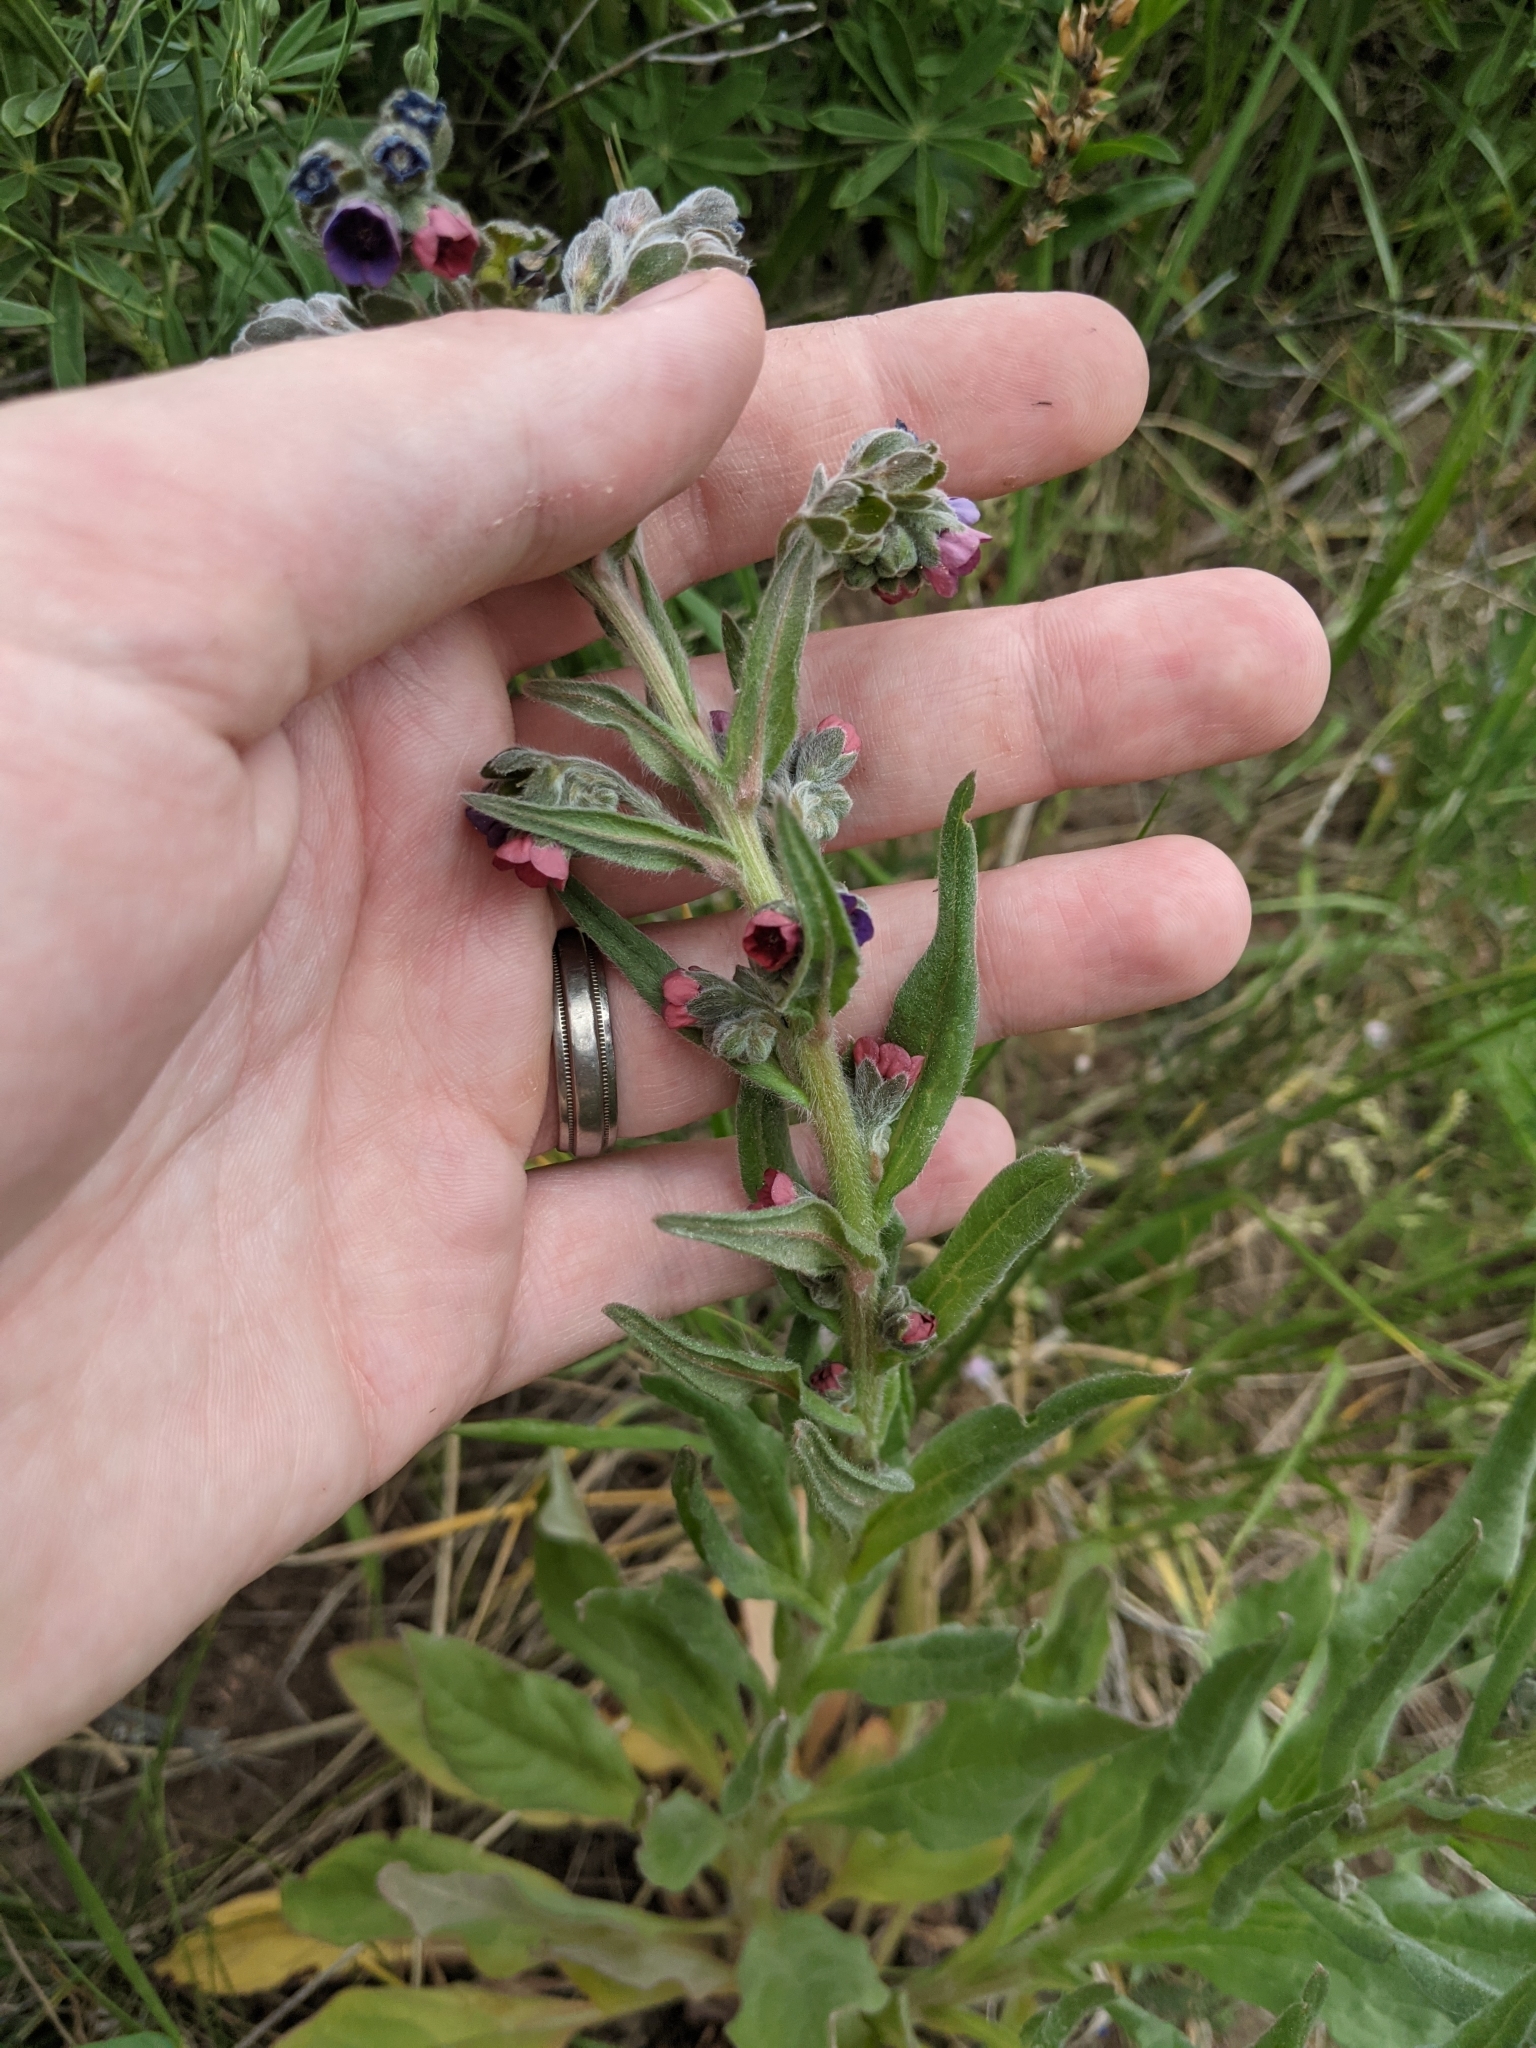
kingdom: Plantae
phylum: Tracheophyta
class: Magnoliopsida
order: Boraginales
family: Boraginaceae
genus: Cynoglossum
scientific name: Cynoglossum officinale
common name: Hound's-tongue
